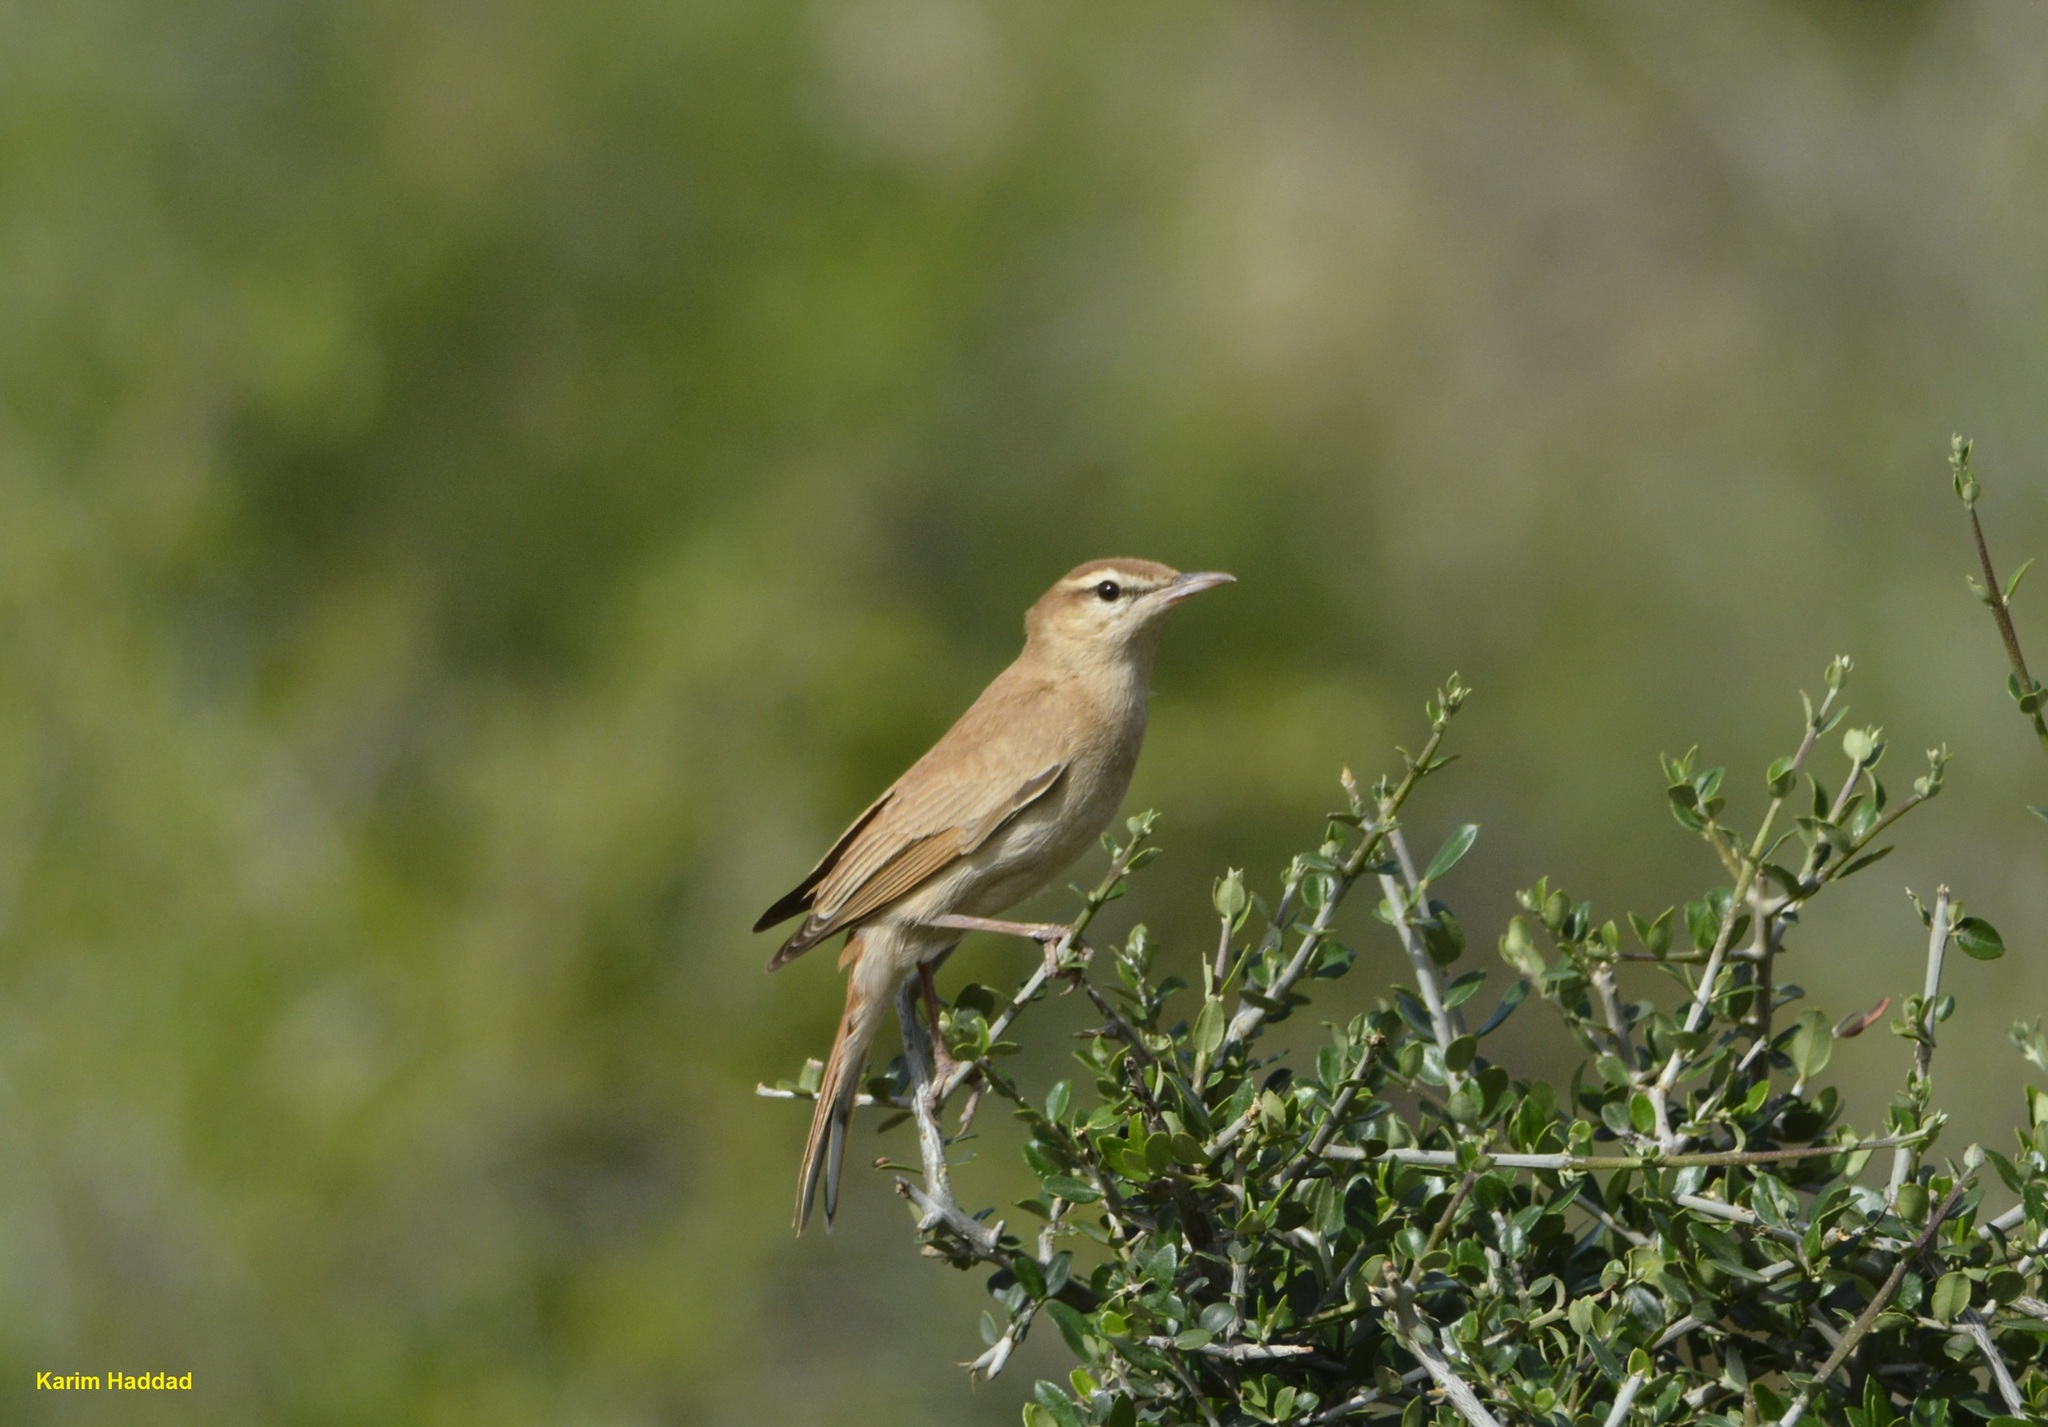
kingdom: Animalia
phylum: Chordata
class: Aves
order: Passeriformes
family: Muscicapidae
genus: Erythropygia
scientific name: Erythropygia galactotes
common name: Rufous-tailed scrub robin
